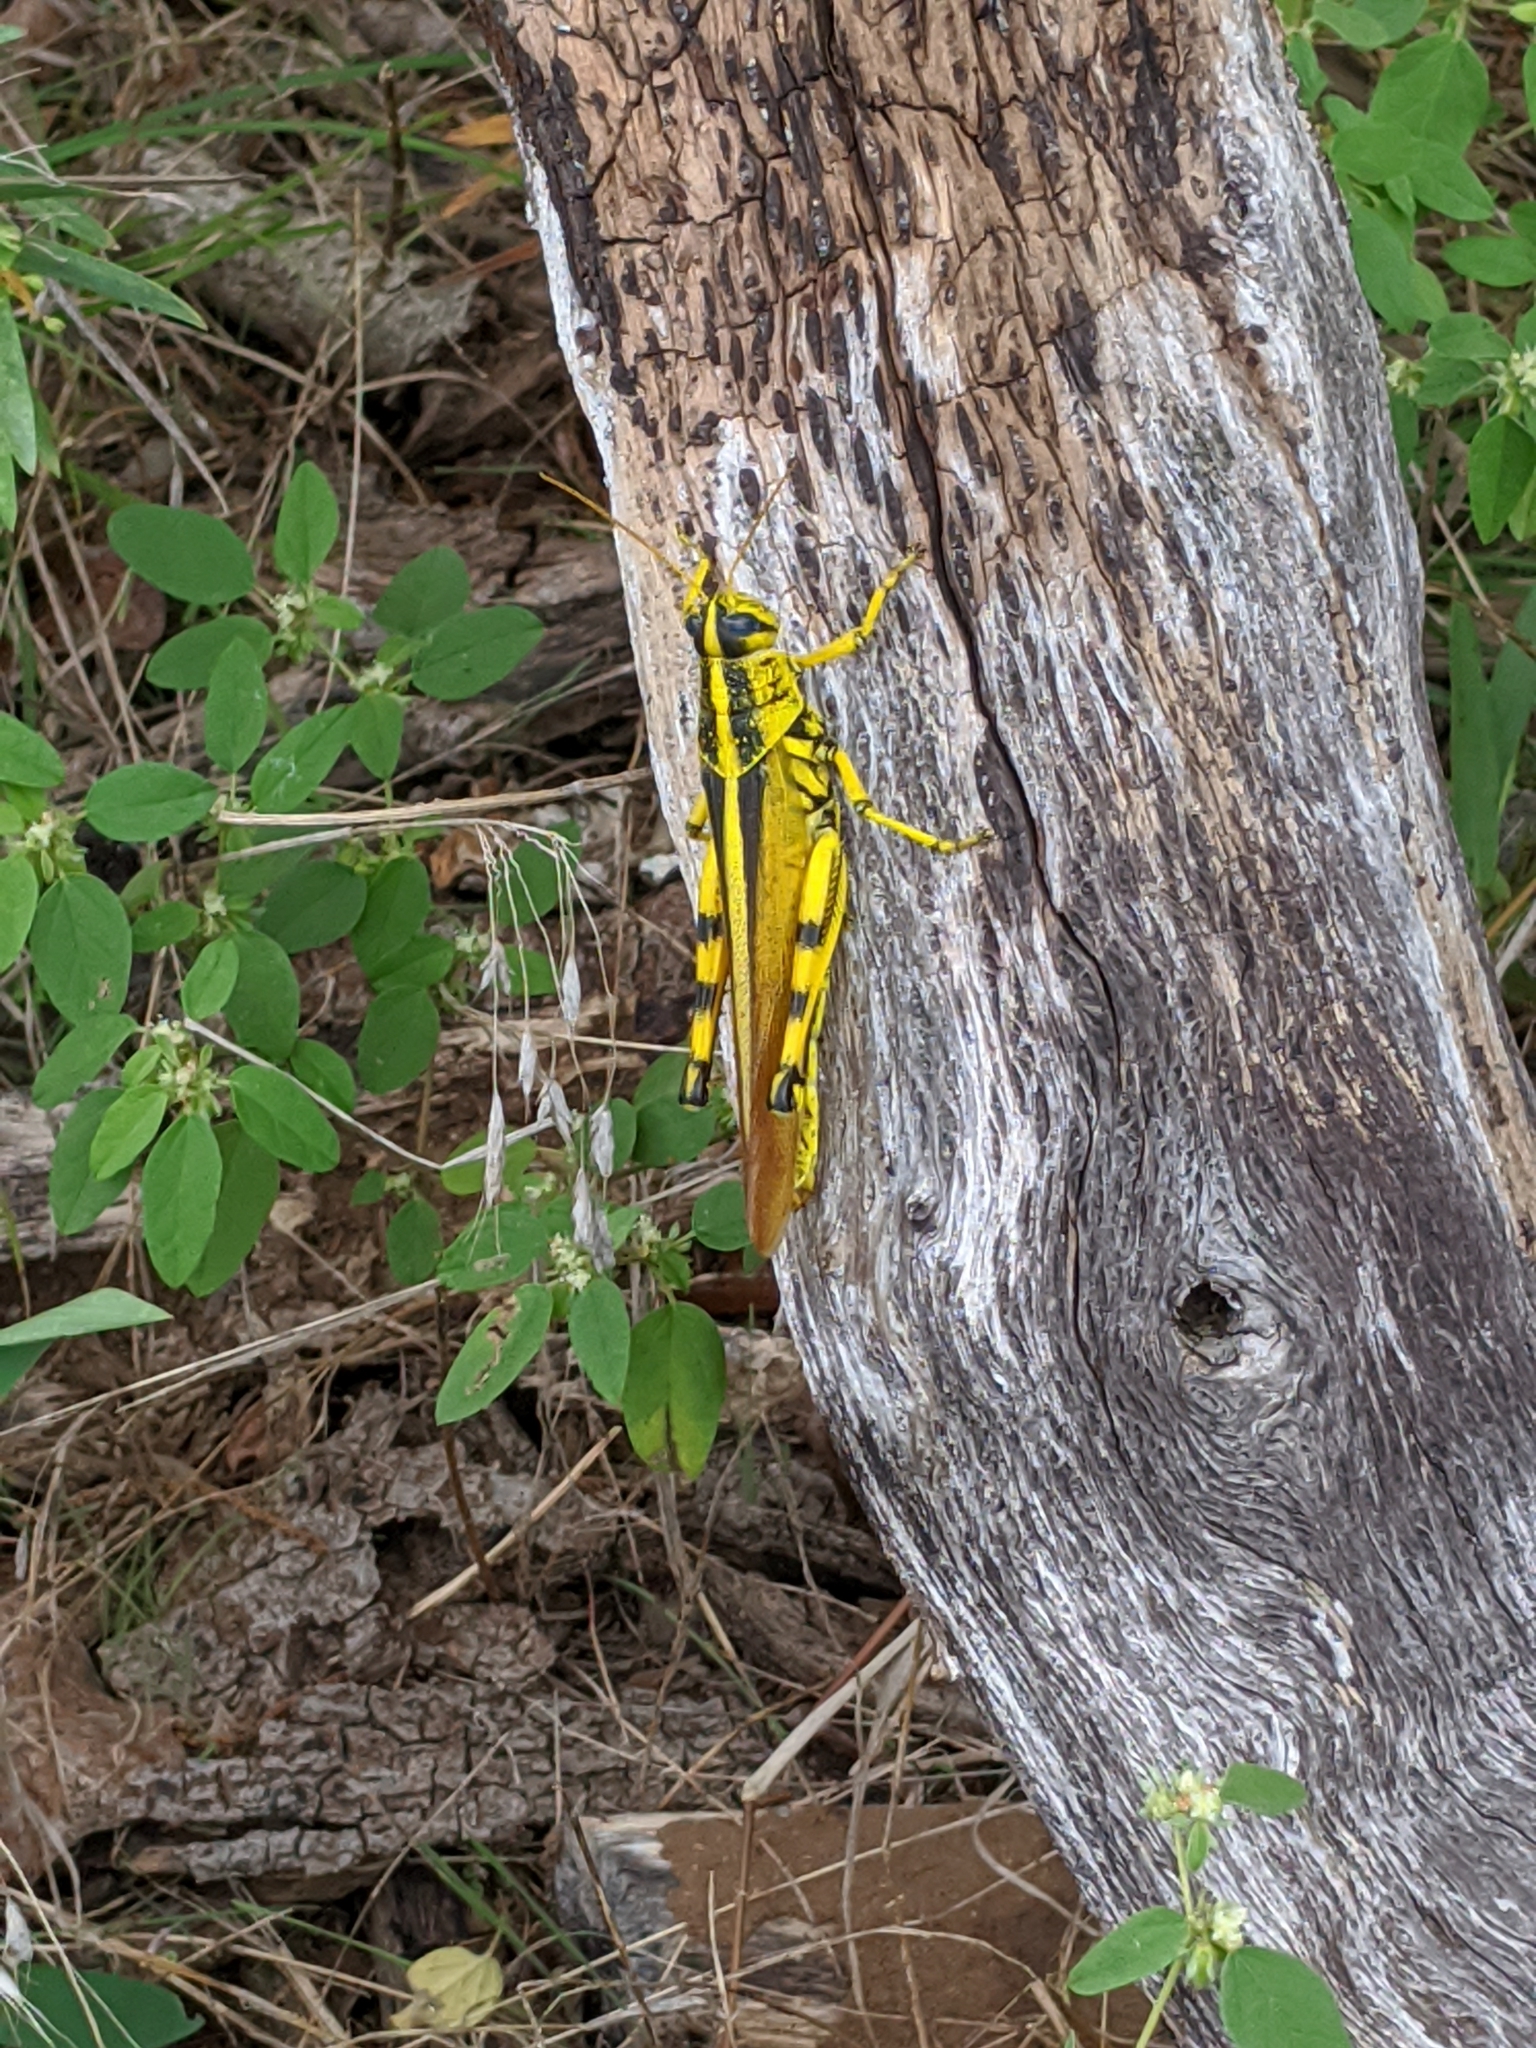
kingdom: Animalia
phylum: Arthropoda
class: Insecta
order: Orthoptera
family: Acrididae
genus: Schistocerca
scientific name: Schistocerca lineata
